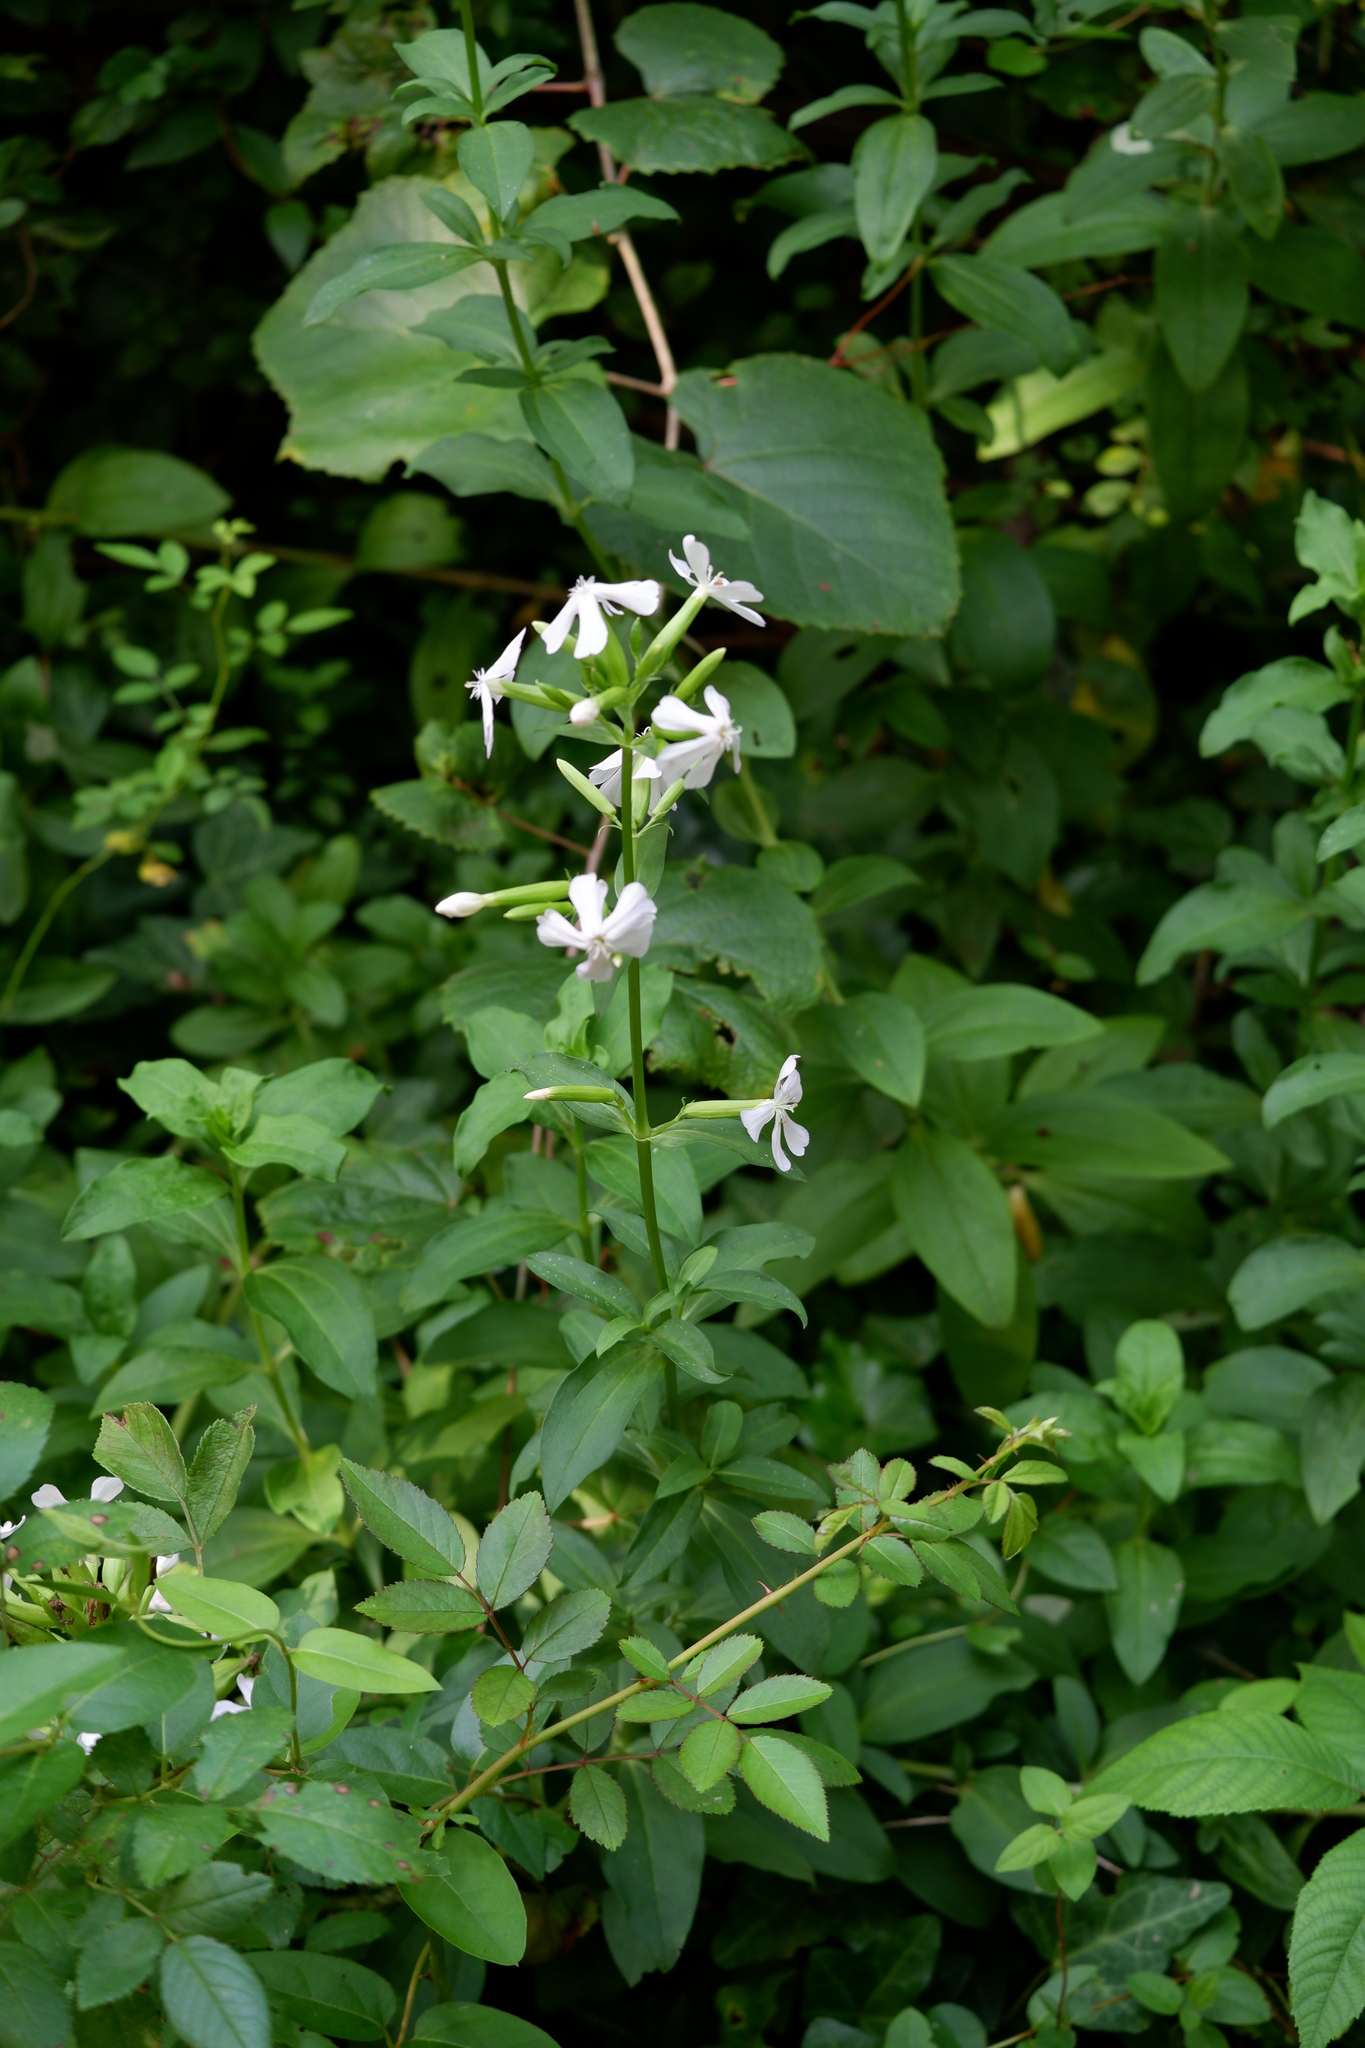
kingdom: Plantae
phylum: Tracheophyta
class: Magnoliopsida
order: Caryophyllales
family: Caryophyllaceae
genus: Saponaria
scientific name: Saponaria officinalis
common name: Soapwort
